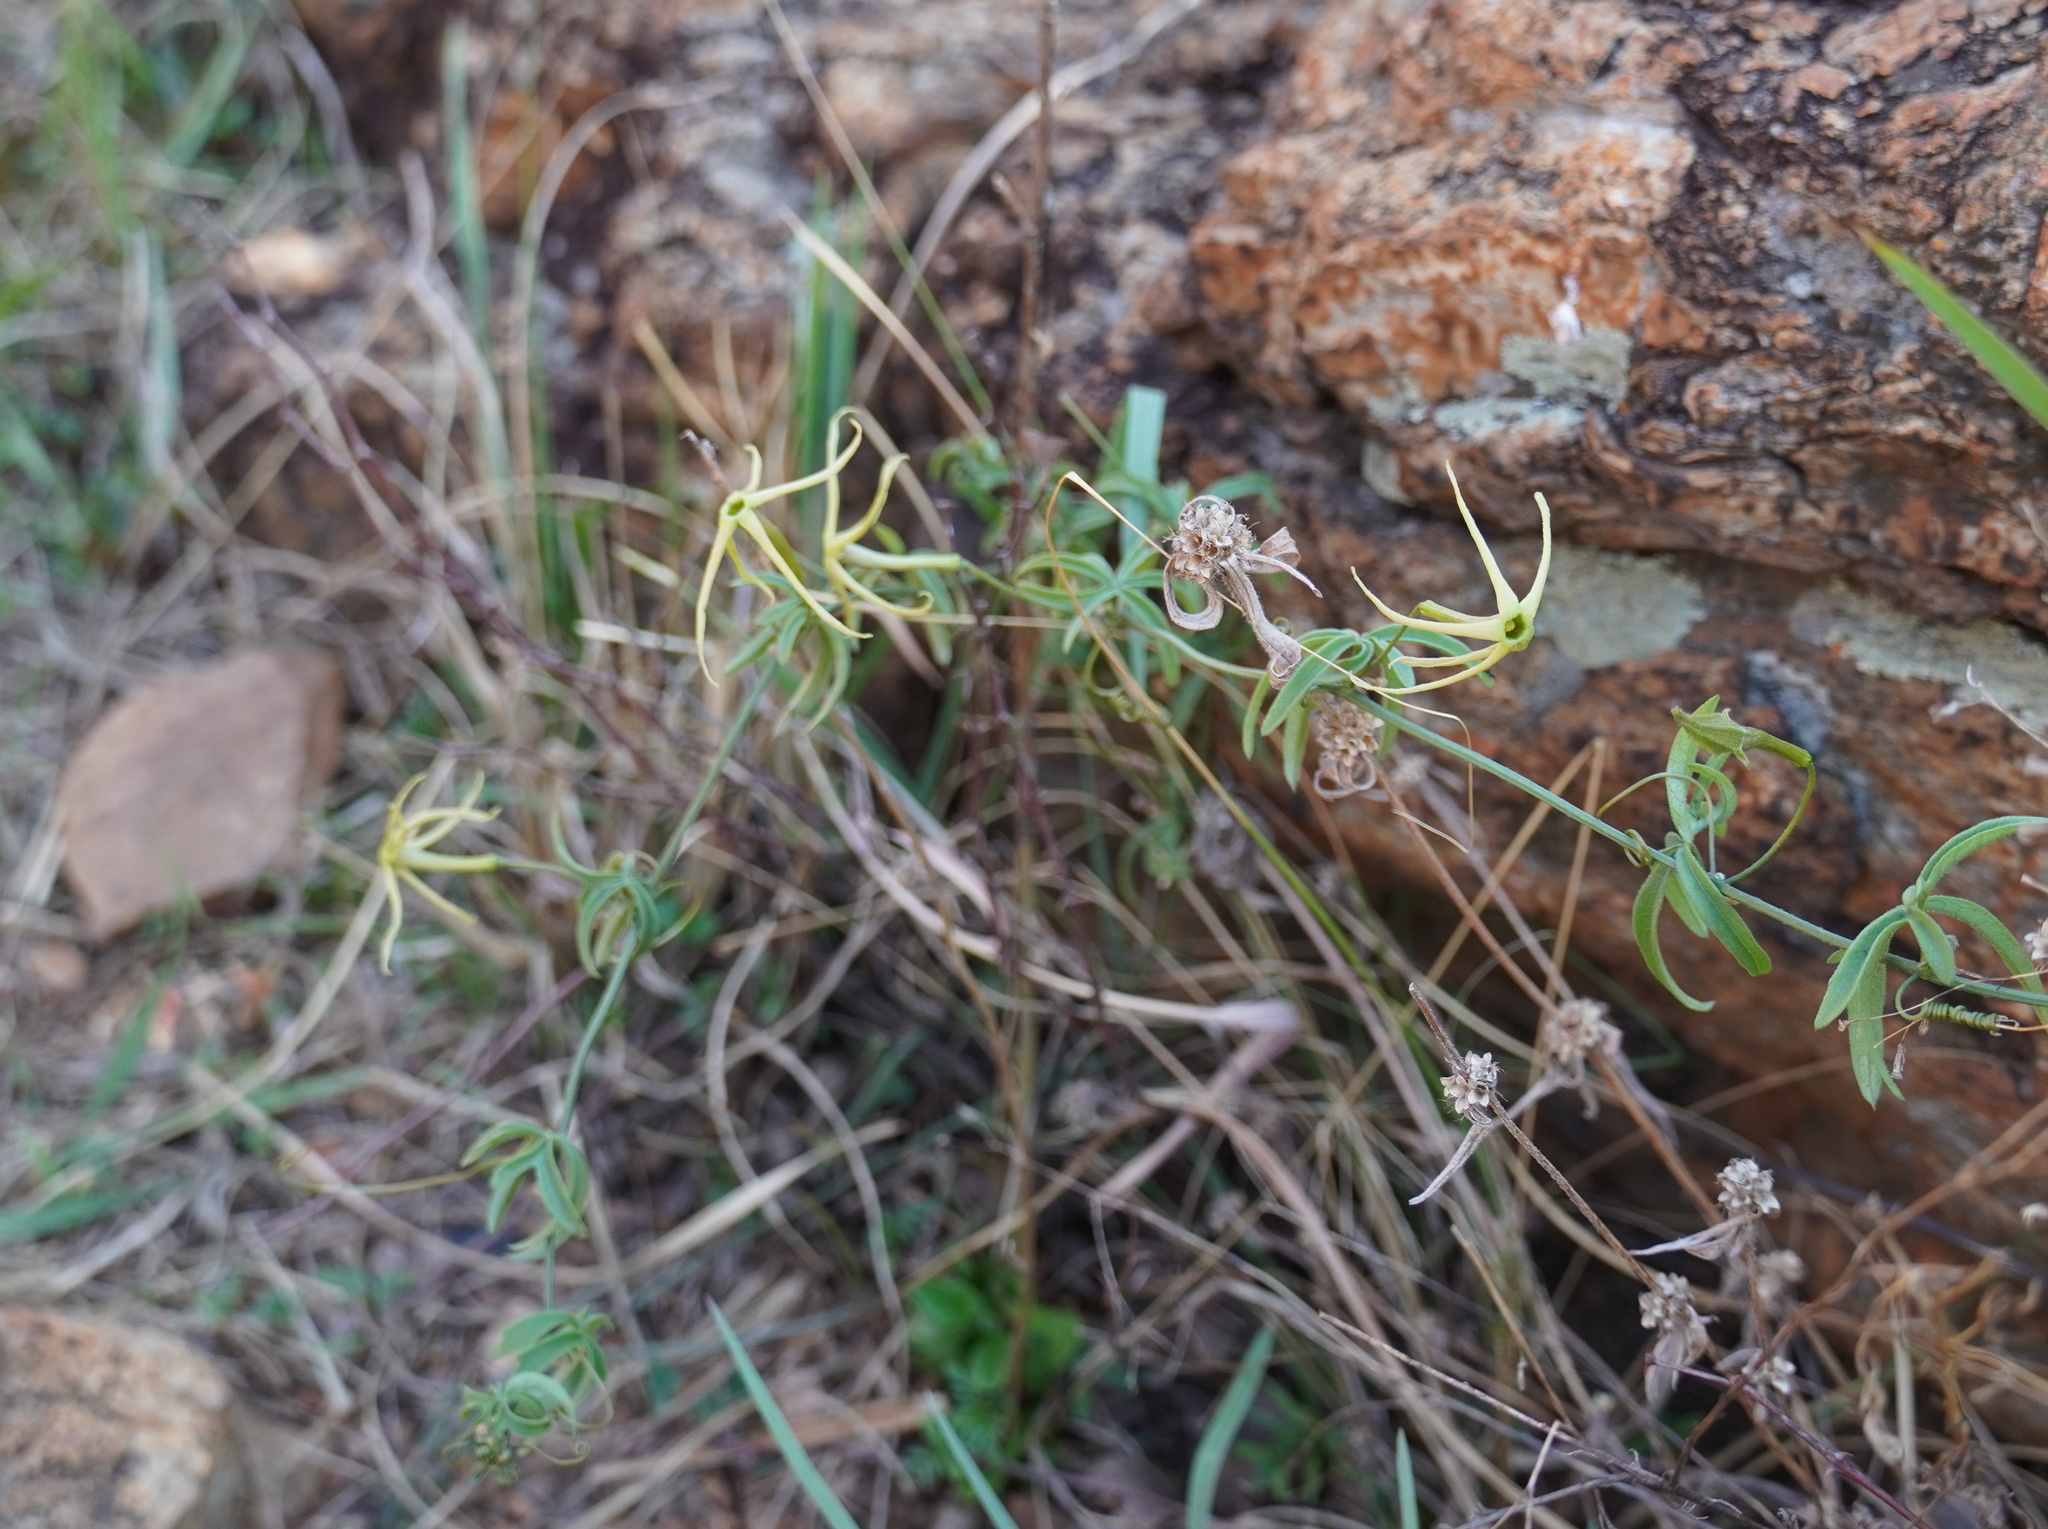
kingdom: Plantae
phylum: Tracheophyta
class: Magnoliopsida
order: Cucurbitales
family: Cucurbitaceae
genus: Trochomeria
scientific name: Trochomeria macrocarpa
